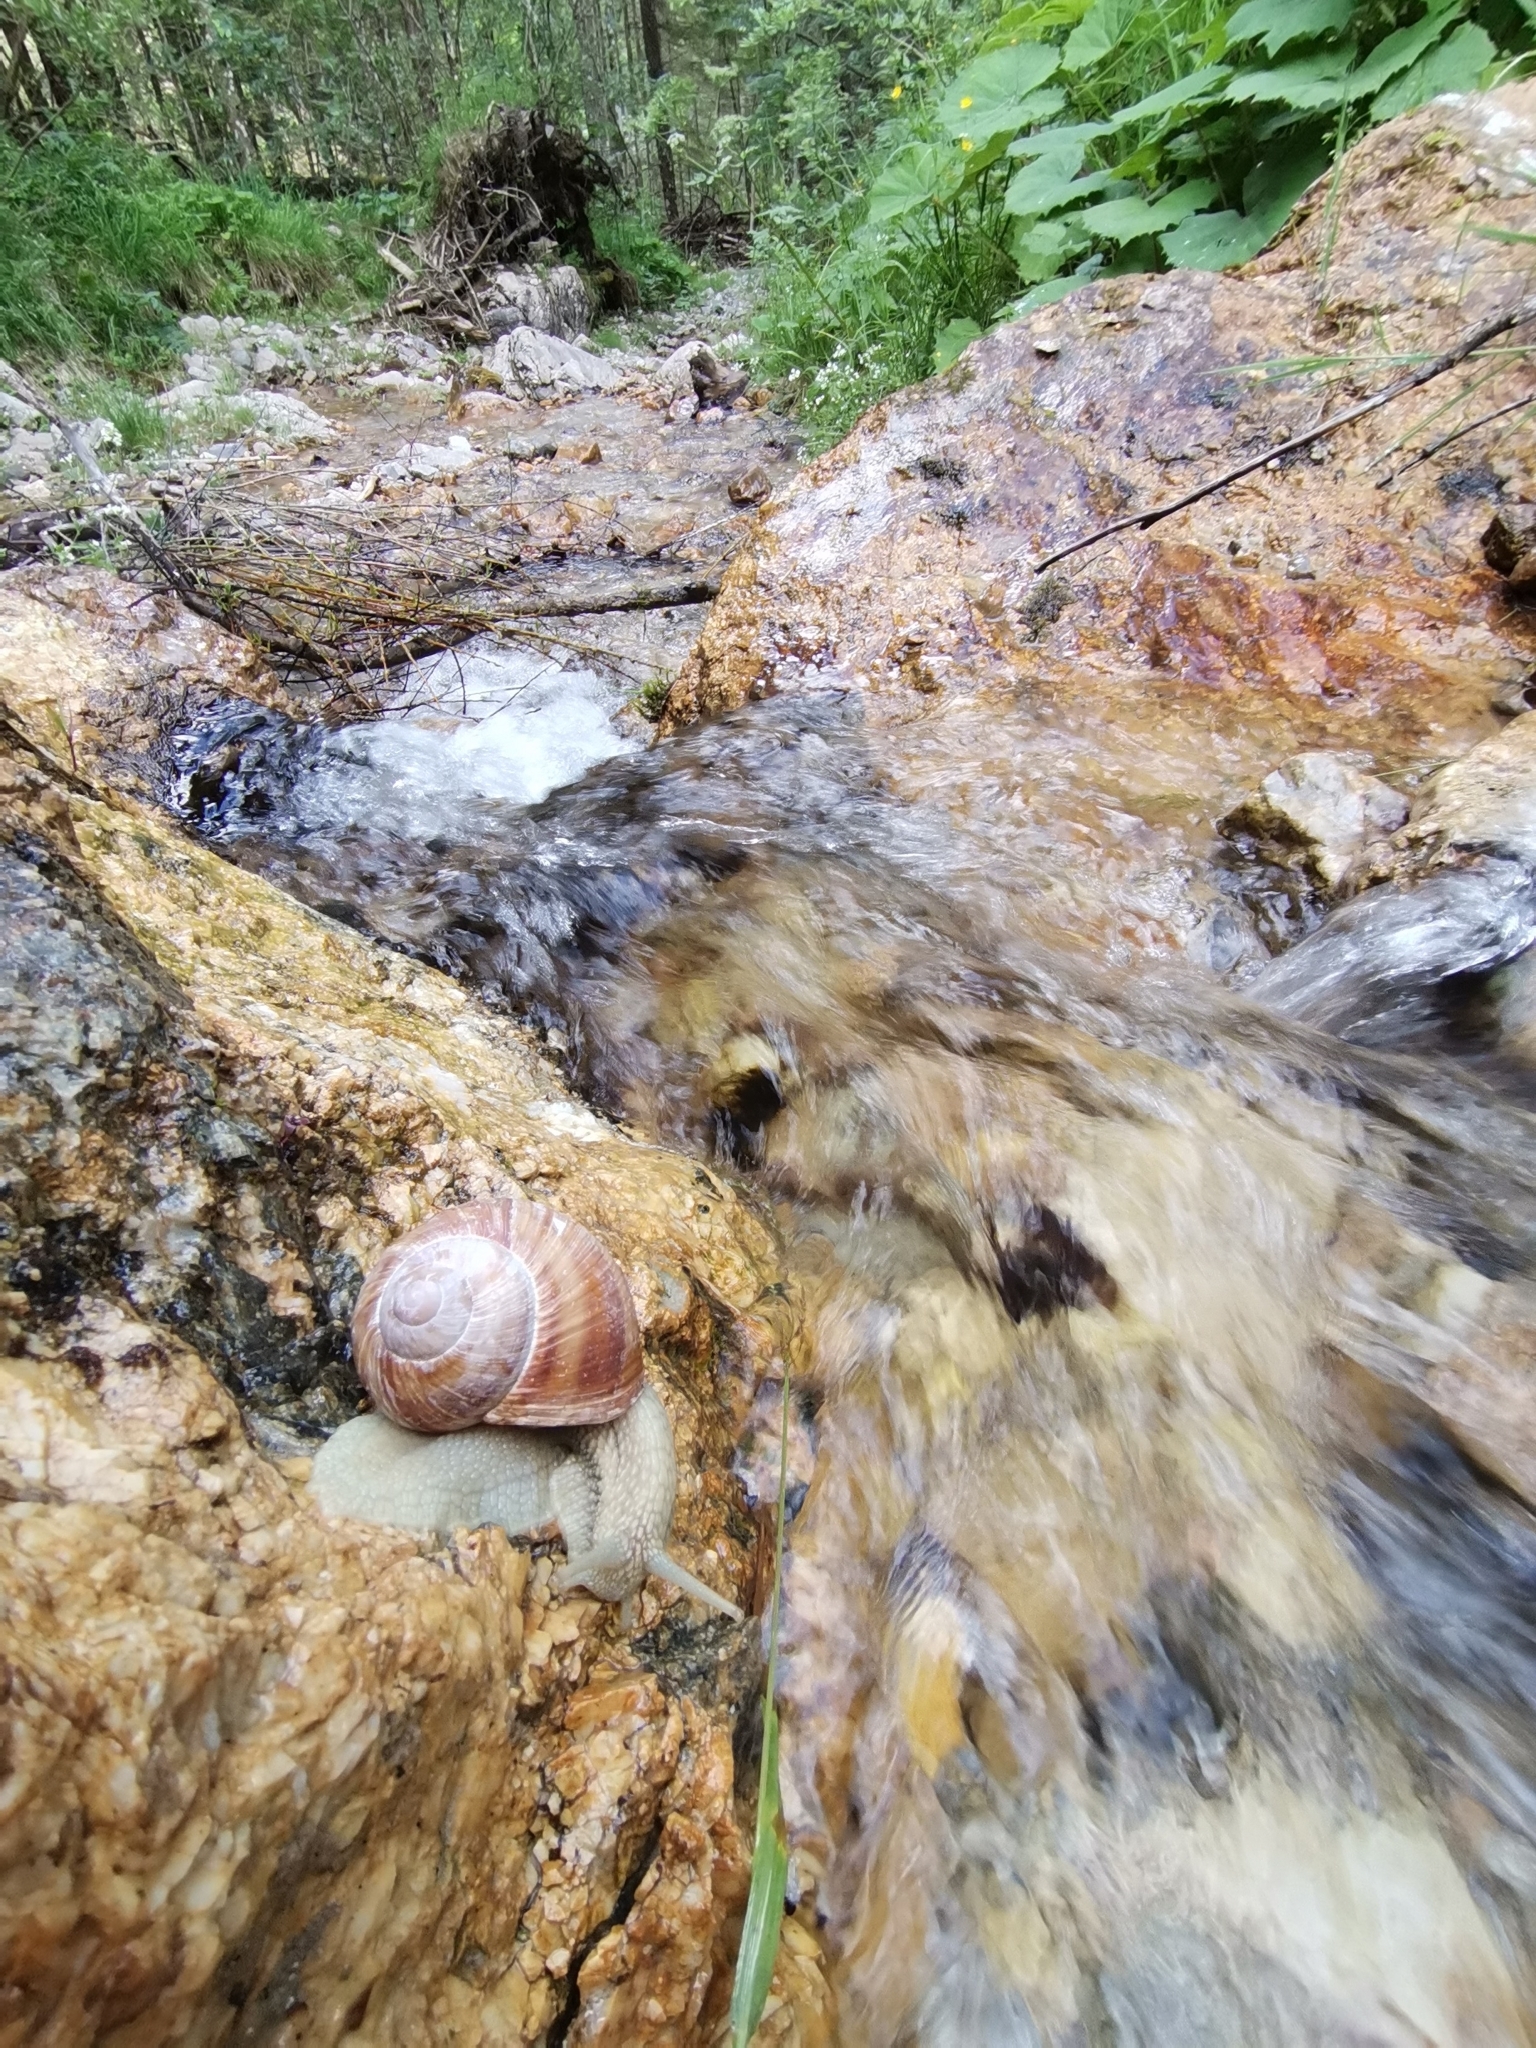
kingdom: Animalia
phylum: Mollusca
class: Gastropoda
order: Stylommatophora
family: Helicidae
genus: Helix
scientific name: Helix pomatia
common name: Roman snail
